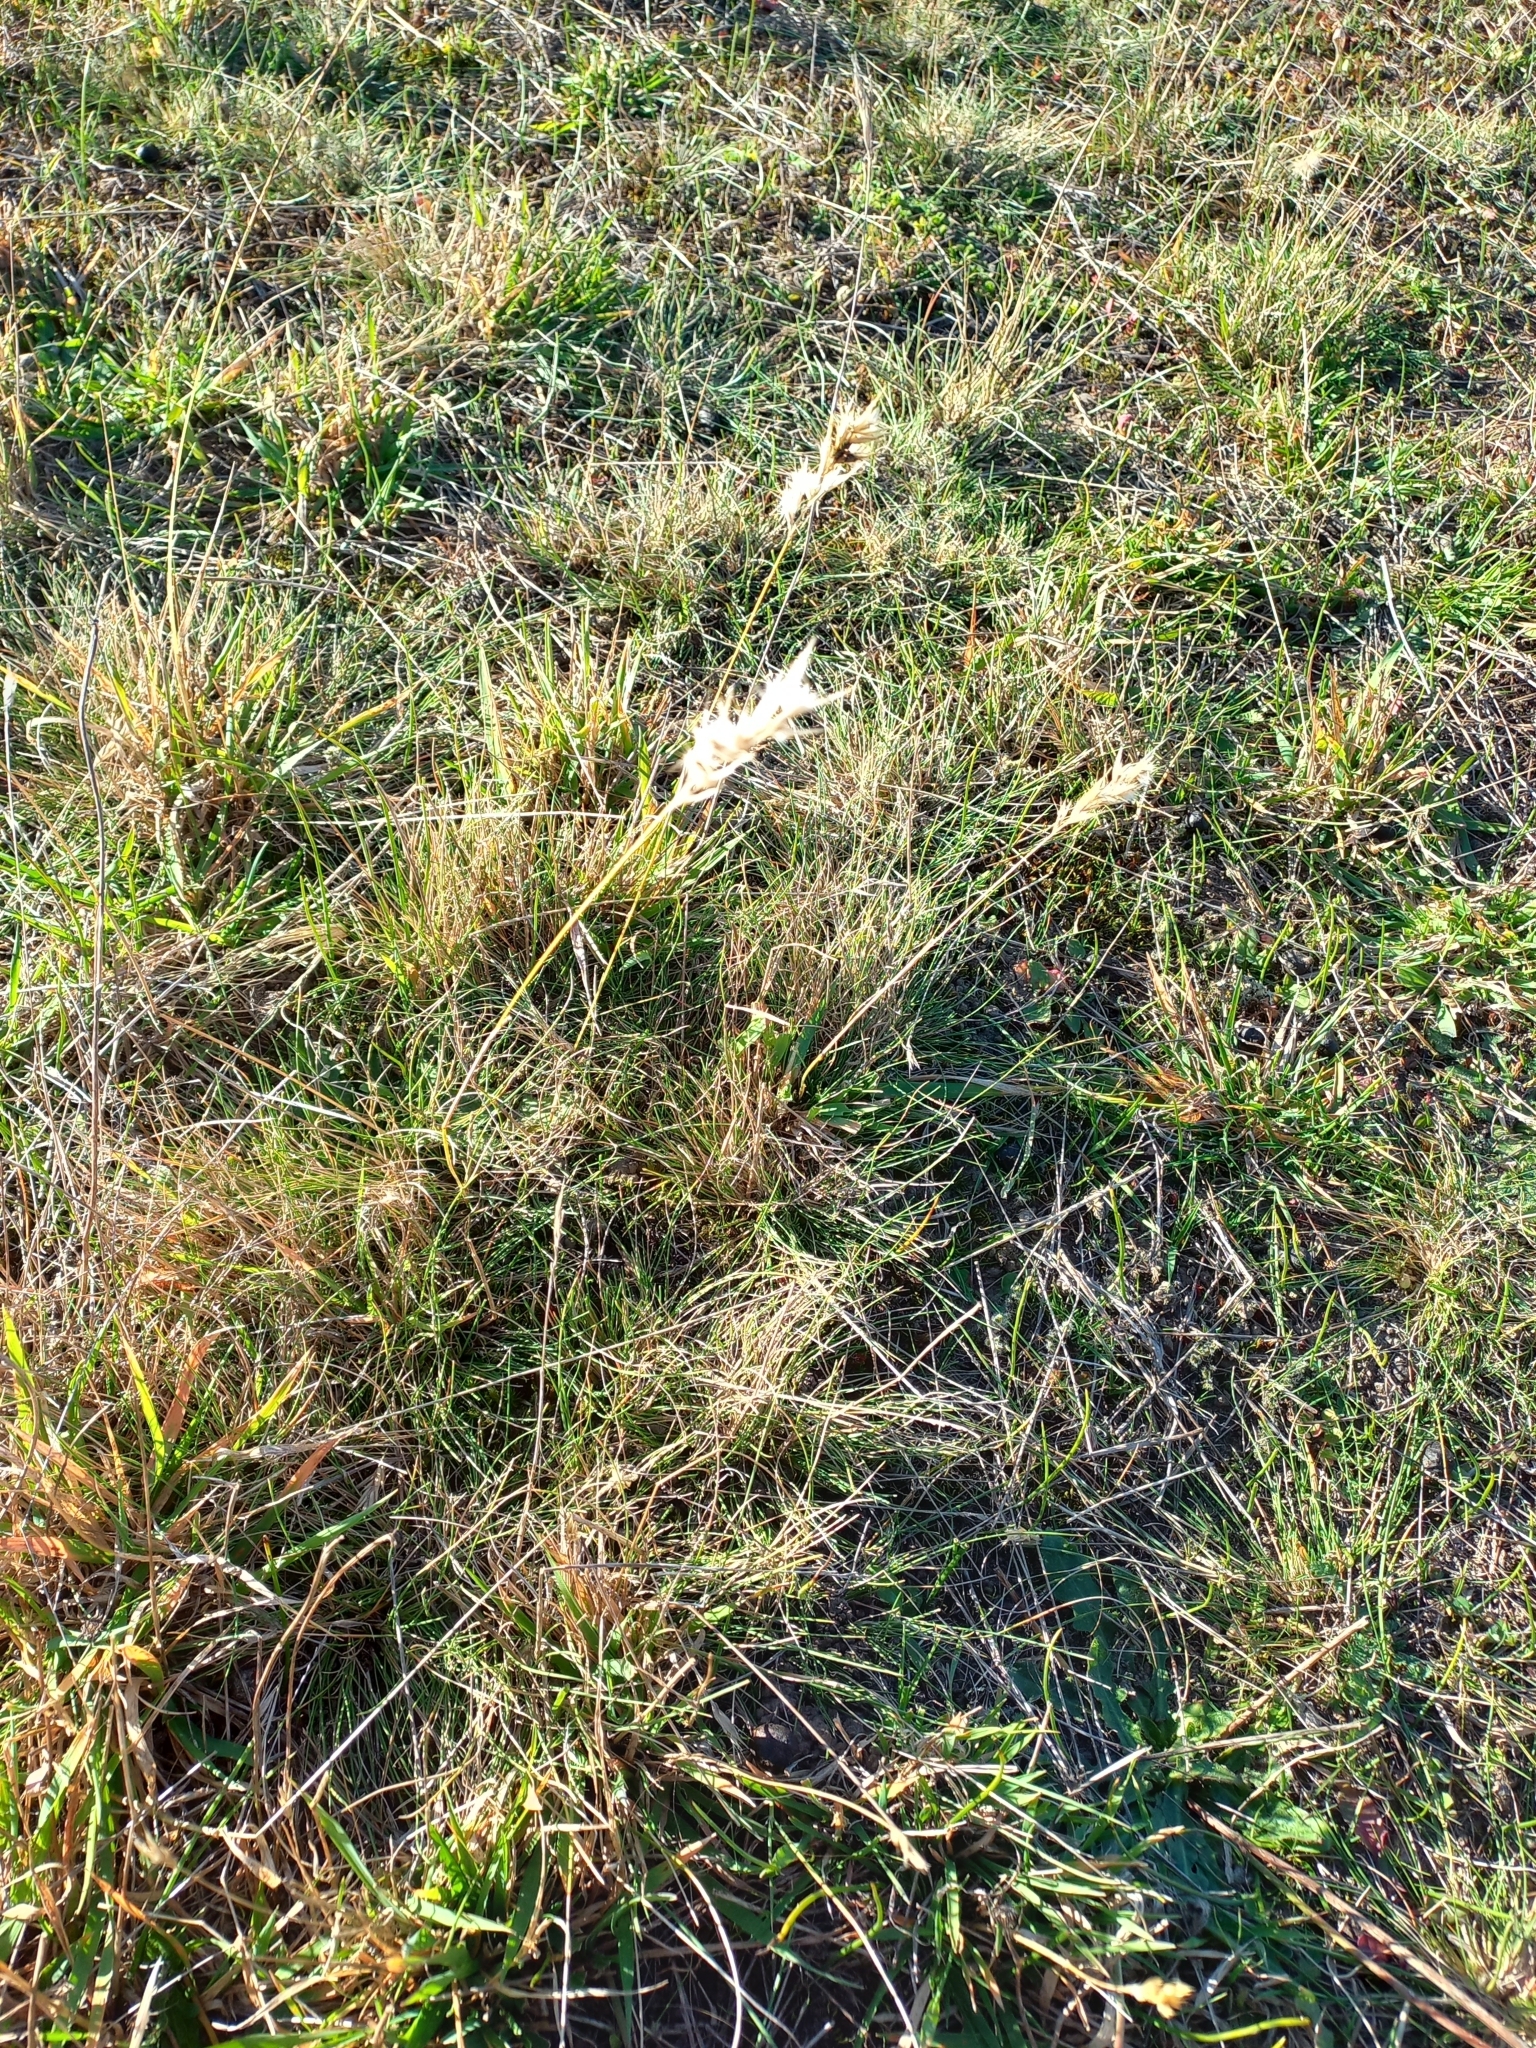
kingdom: Plantae
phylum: Tracheophyta
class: Liliopsida
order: Poales
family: Poaceae
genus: Rytidosperma
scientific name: Rytidosperma caespitosum
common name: Tufted wallaby grass
